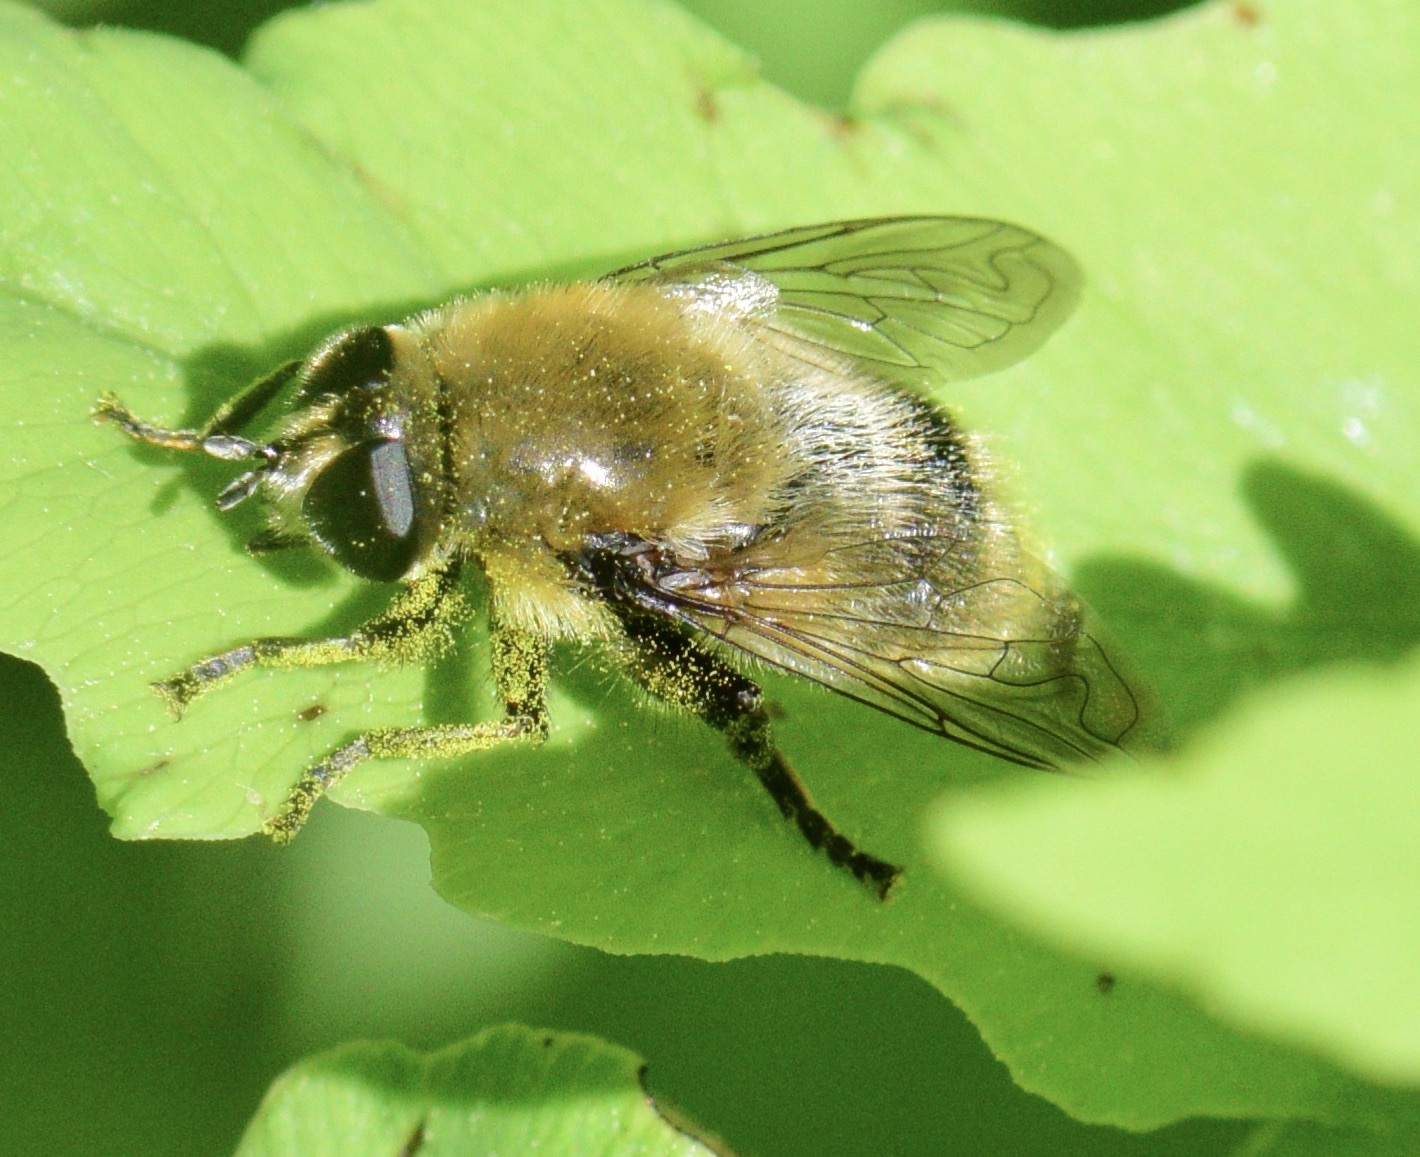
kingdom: Animalia
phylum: Arthropoda
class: Insecta
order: Diptera
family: Syrphidae
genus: Merodon
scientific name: Merodon equestris
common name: Greater bulb-fly
